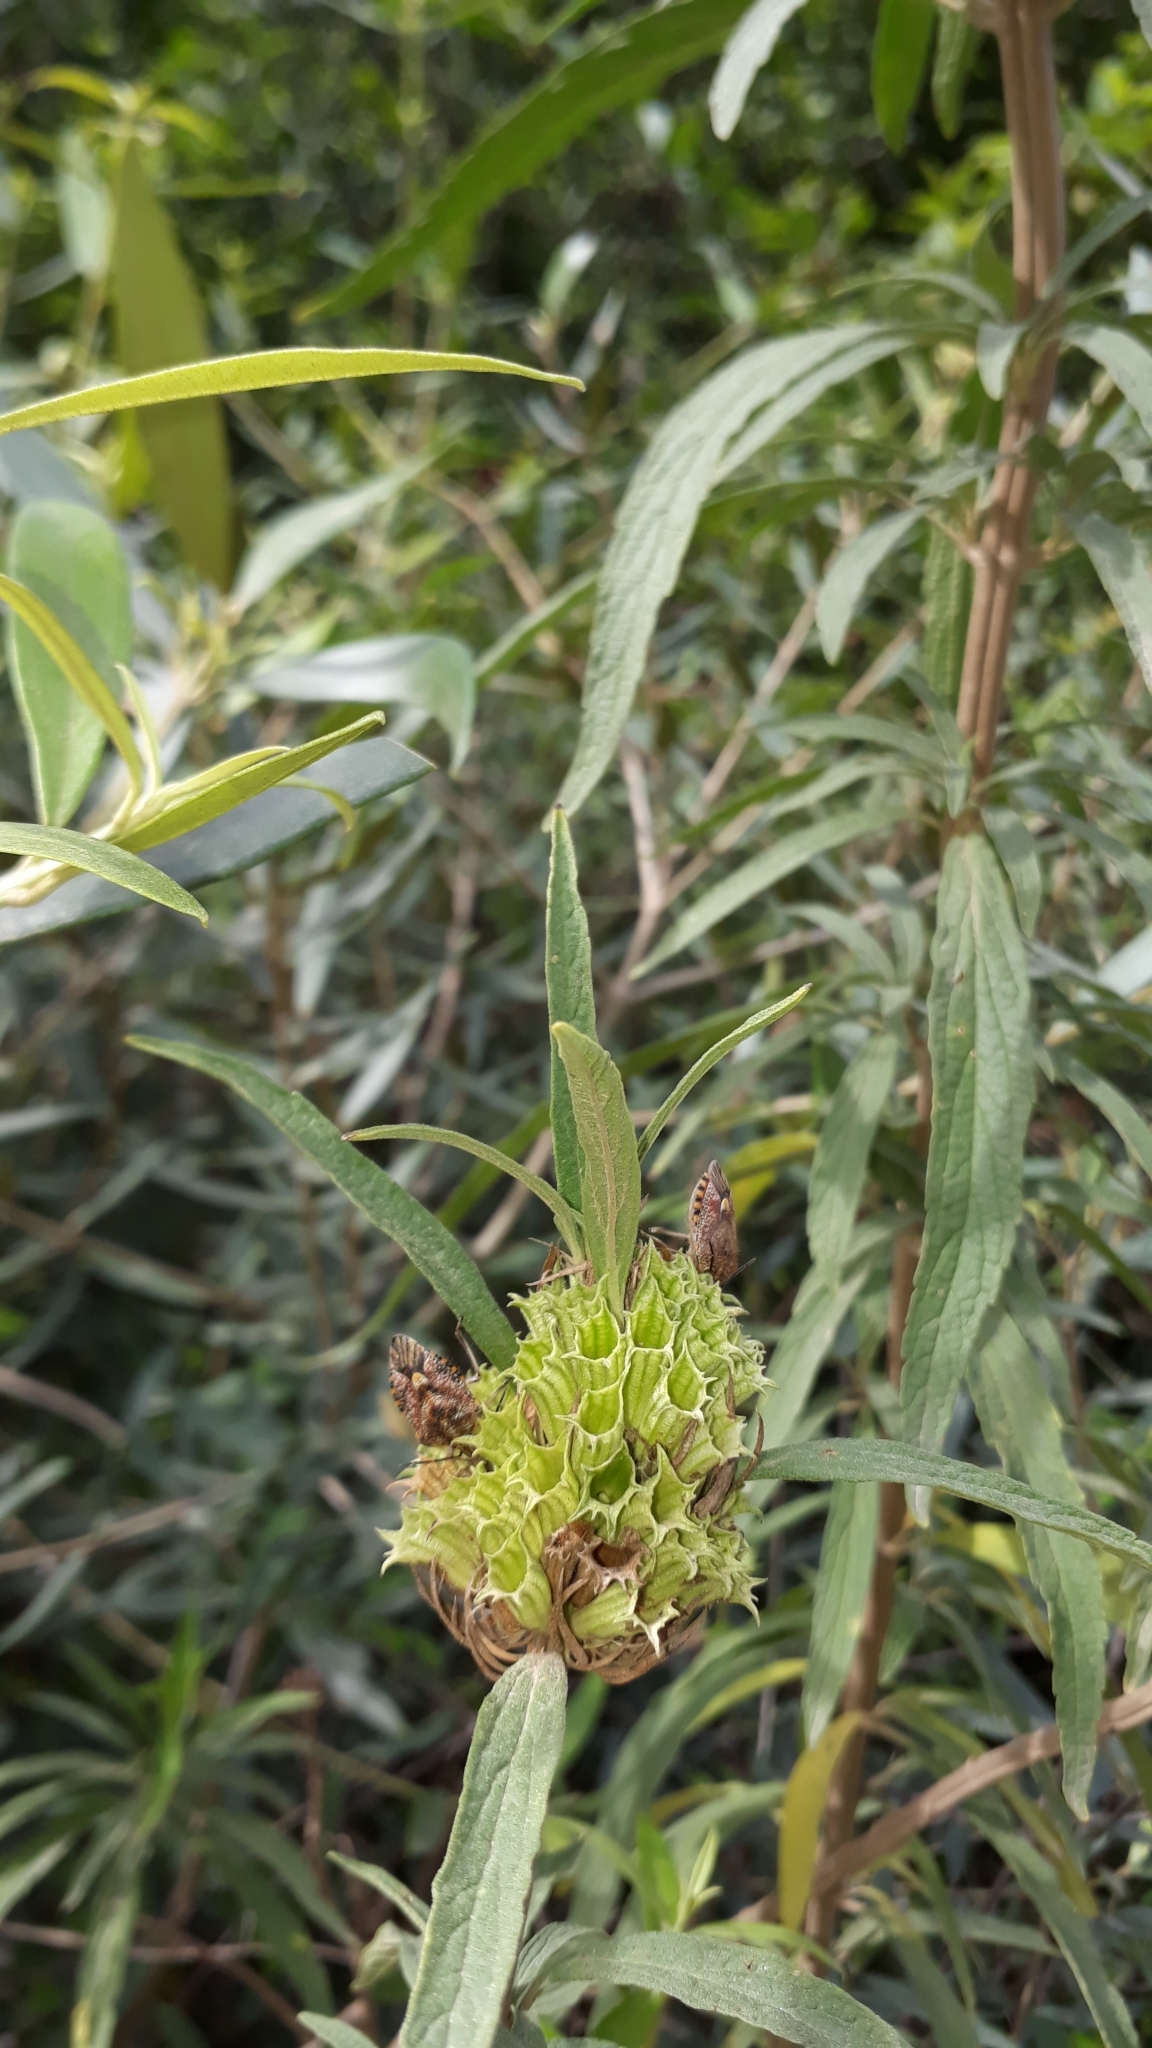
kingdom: Plantae
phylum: Tracheophyta
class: Magnoliopsida
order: Lamiales
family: Lamiaceae
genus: Leonotis
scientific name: Leonotis leonurus
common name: Lion's ear
